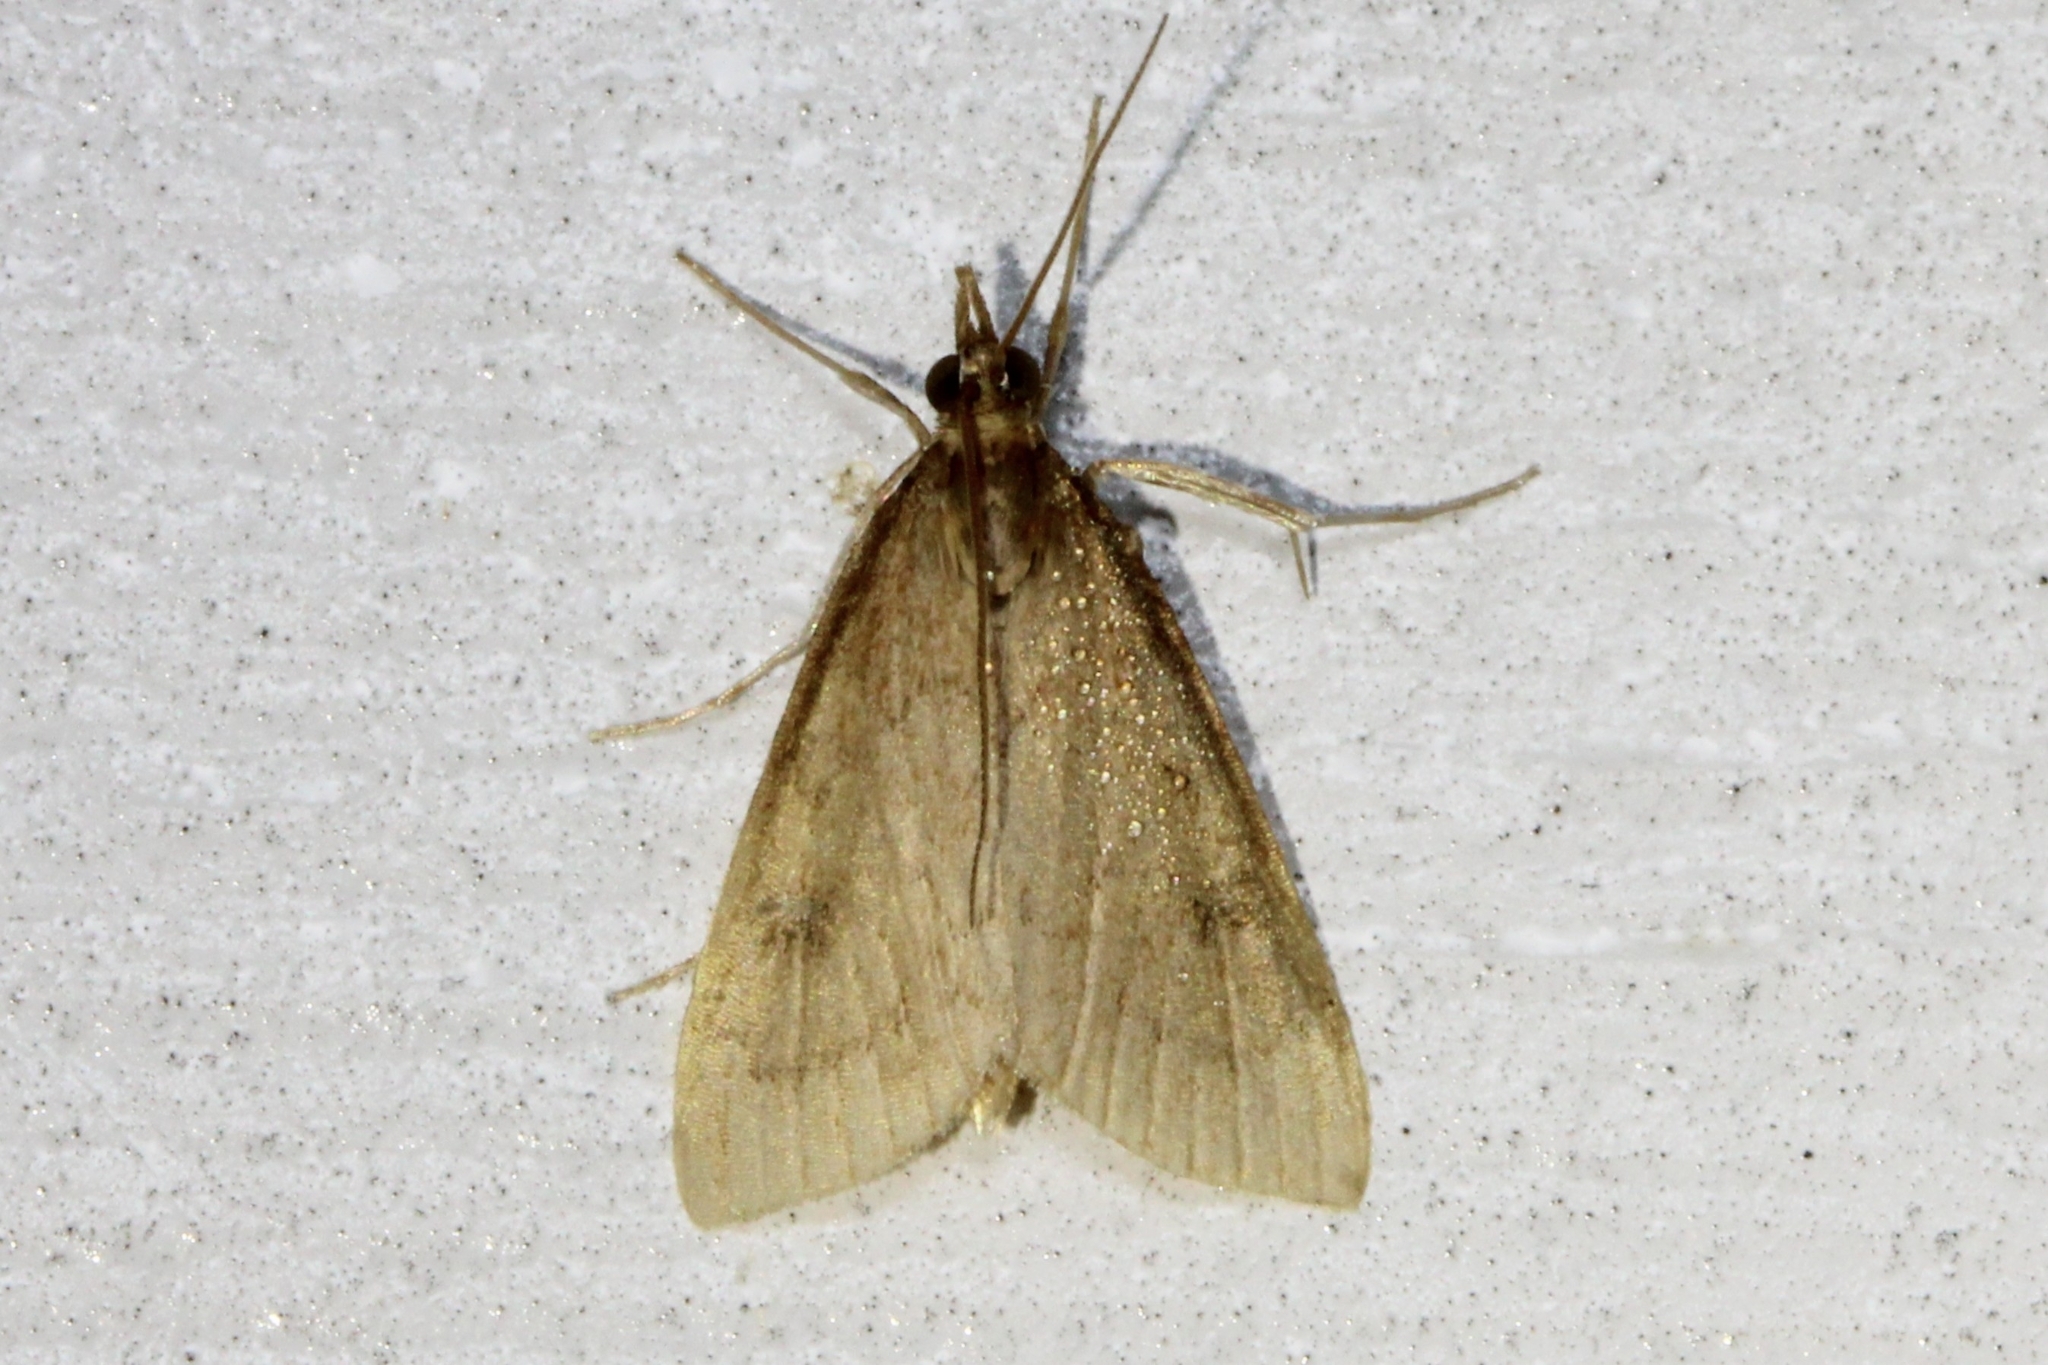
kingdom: Animalia
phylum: Arthropoda
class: Insecta
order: Lepidoptera
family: Crambidae
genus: Udea
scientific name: Udea rubigalis
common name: Celery leaftier moth
